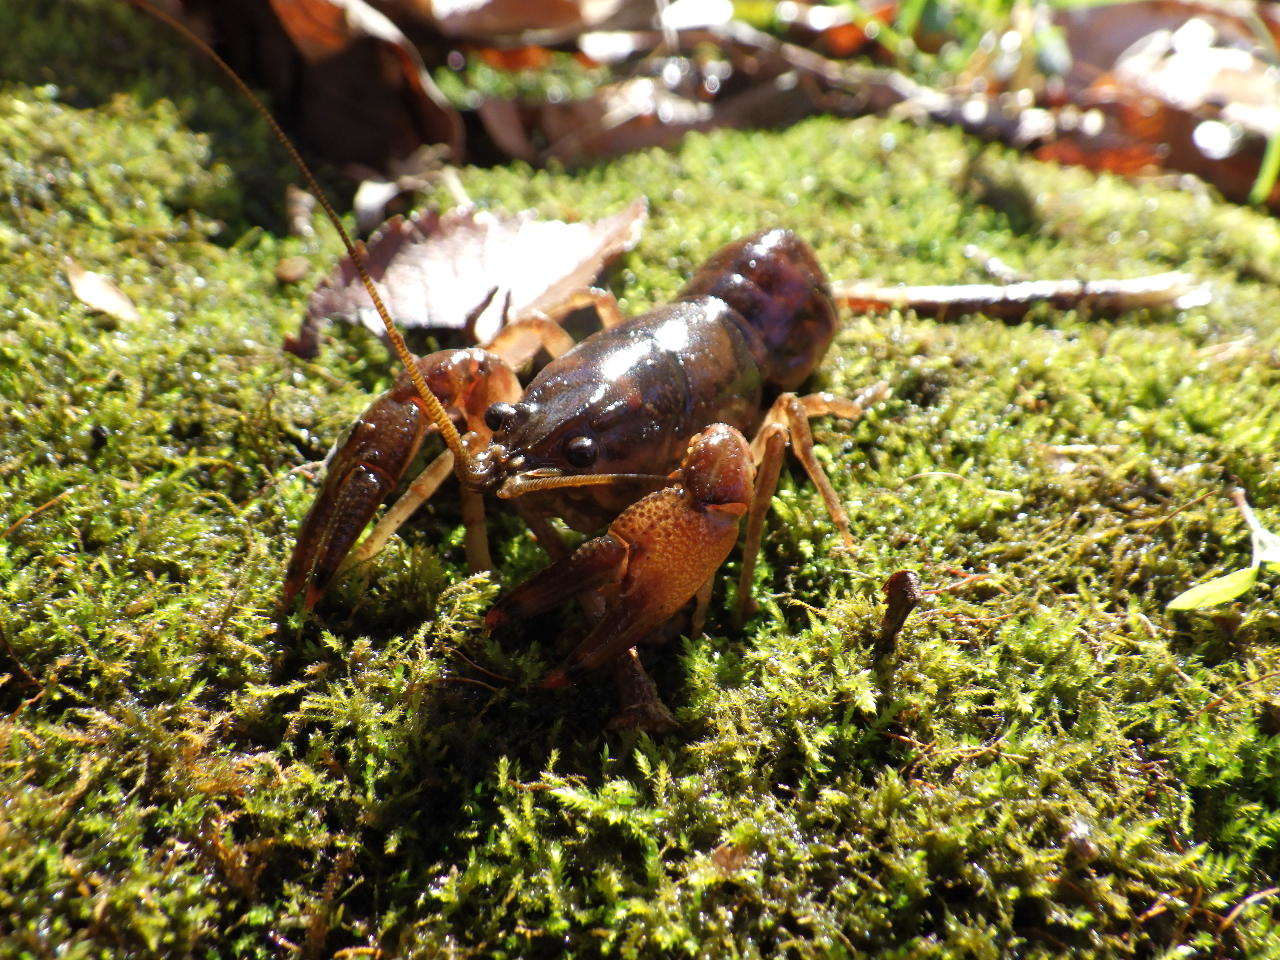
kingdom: Animalia
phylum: Arthropoda
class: Malacostraca
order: Decapoda
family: Cambaridae
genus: Faxonius
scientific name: Faxonius neglectus
